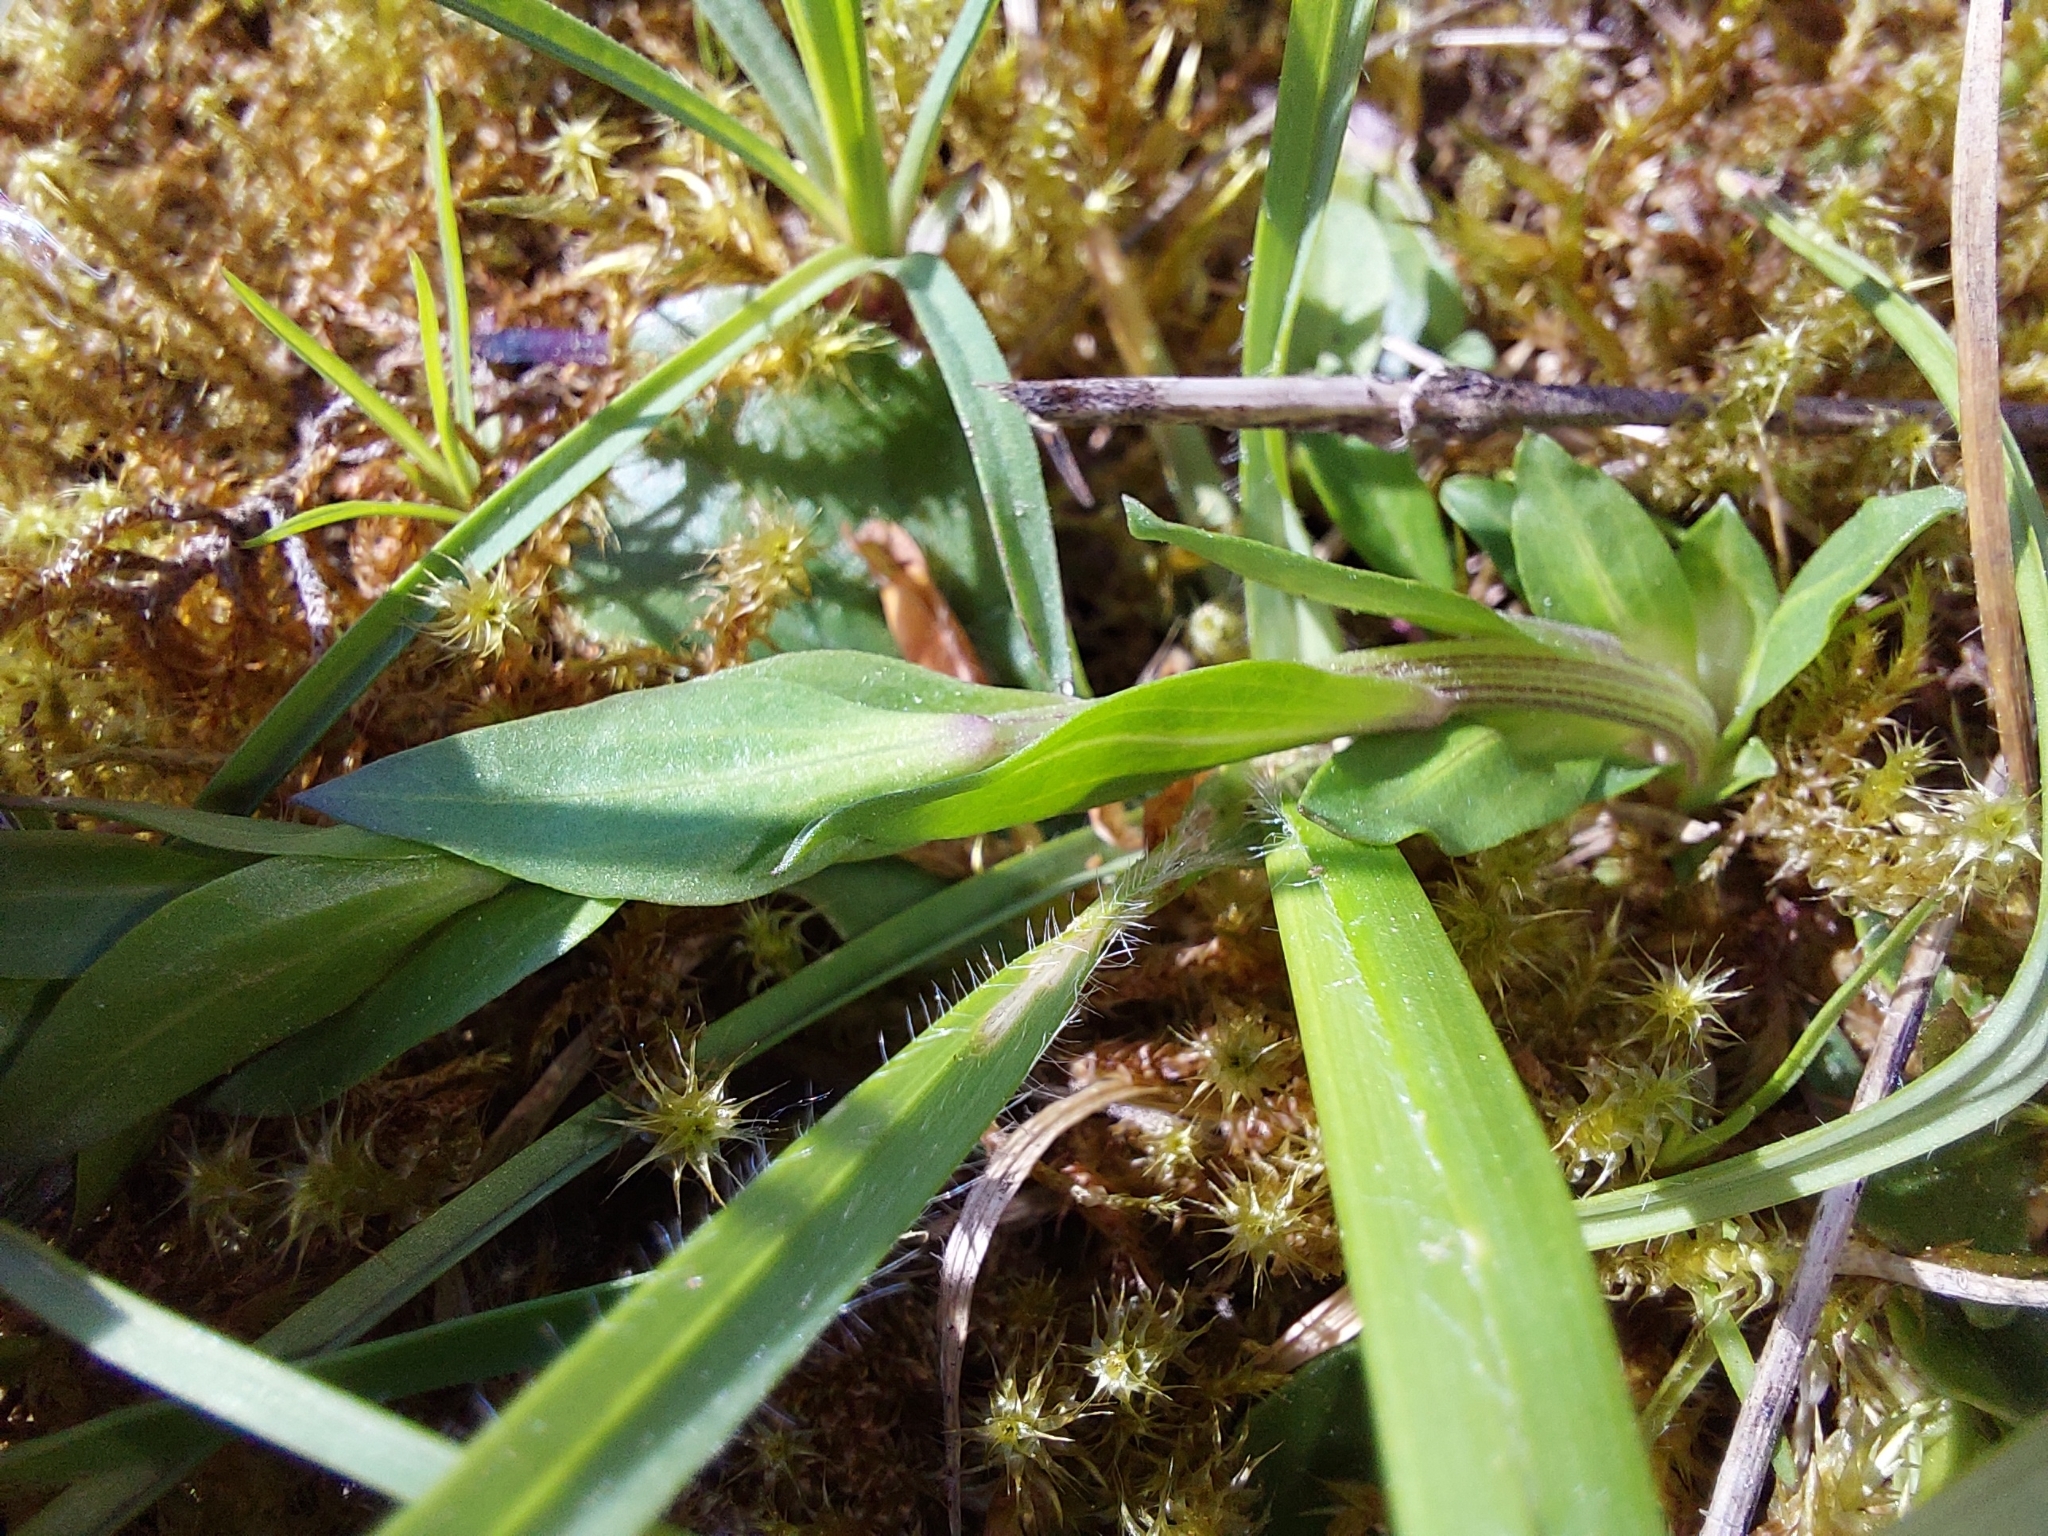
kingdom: Plantae
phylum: Tracheophyta
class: Magnoliopsida
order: Lamiales
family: Plantaginaceae
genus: Globularia
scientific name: Globularia bisnagarica
